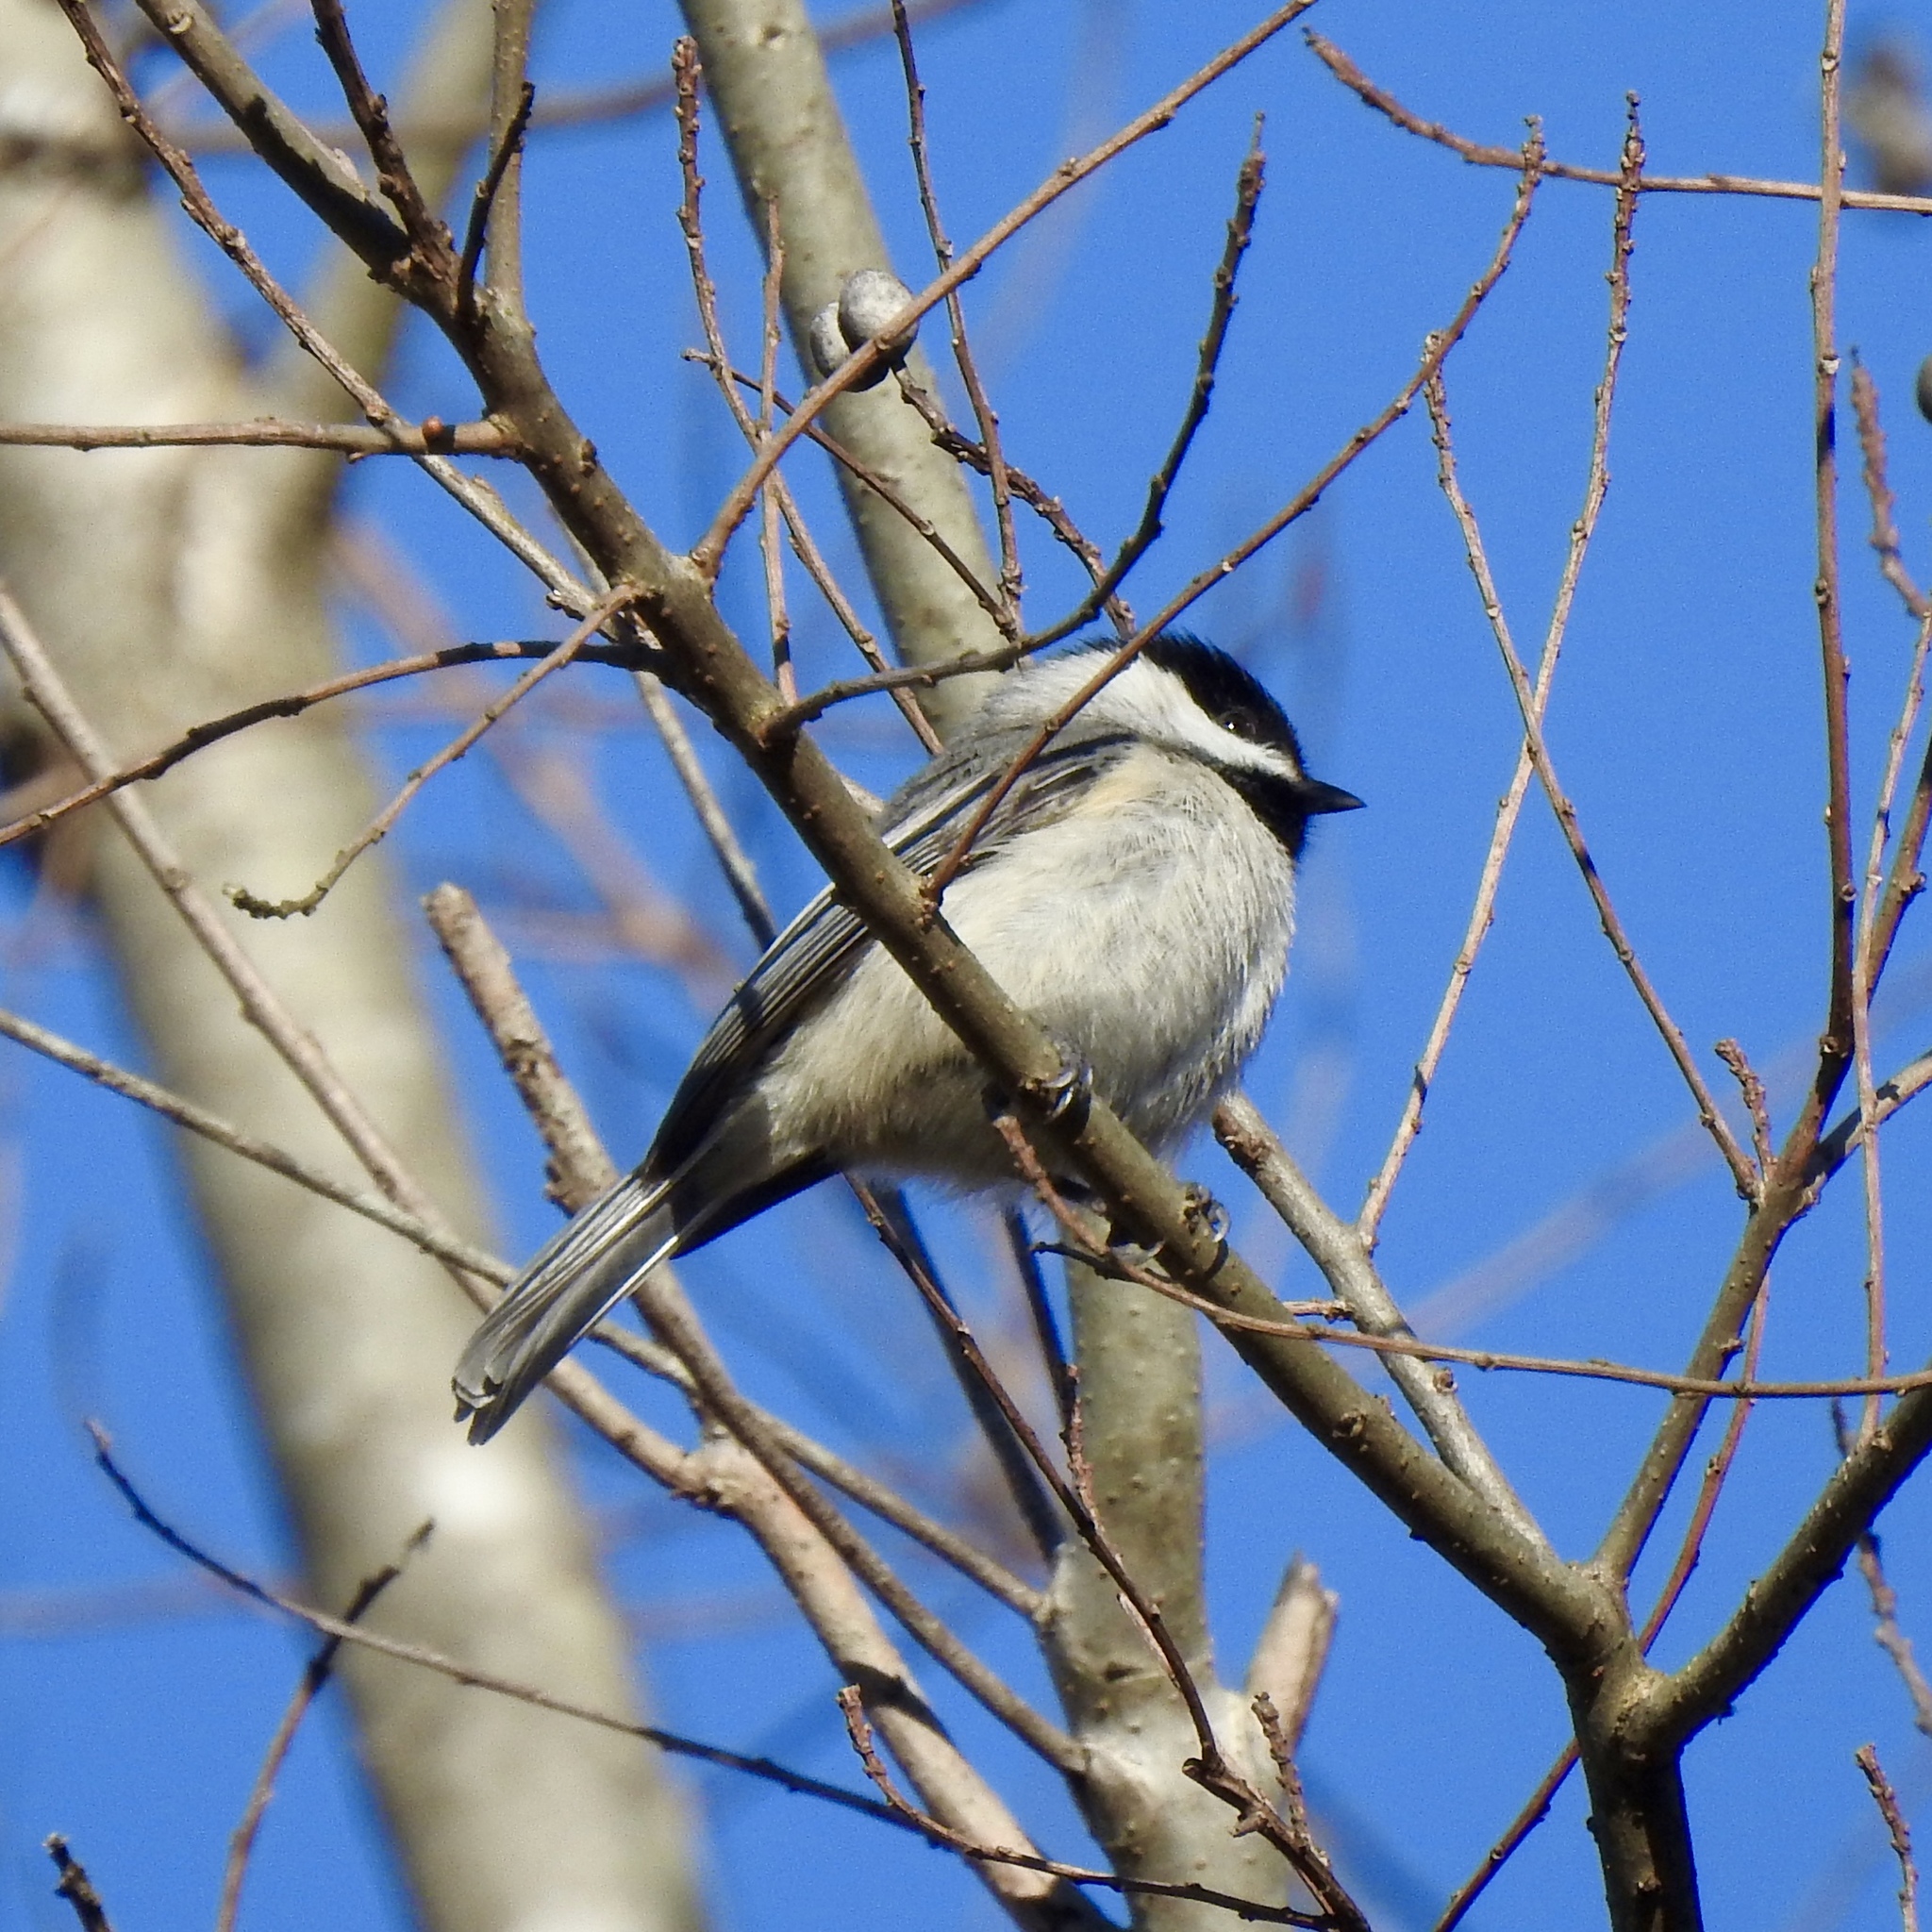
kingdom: Animalia
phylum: Chordata
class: Aves
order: Passeriformes
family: Paridae
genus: Poecile
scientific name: Poecile carolinensis
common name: Carolina chickadee
